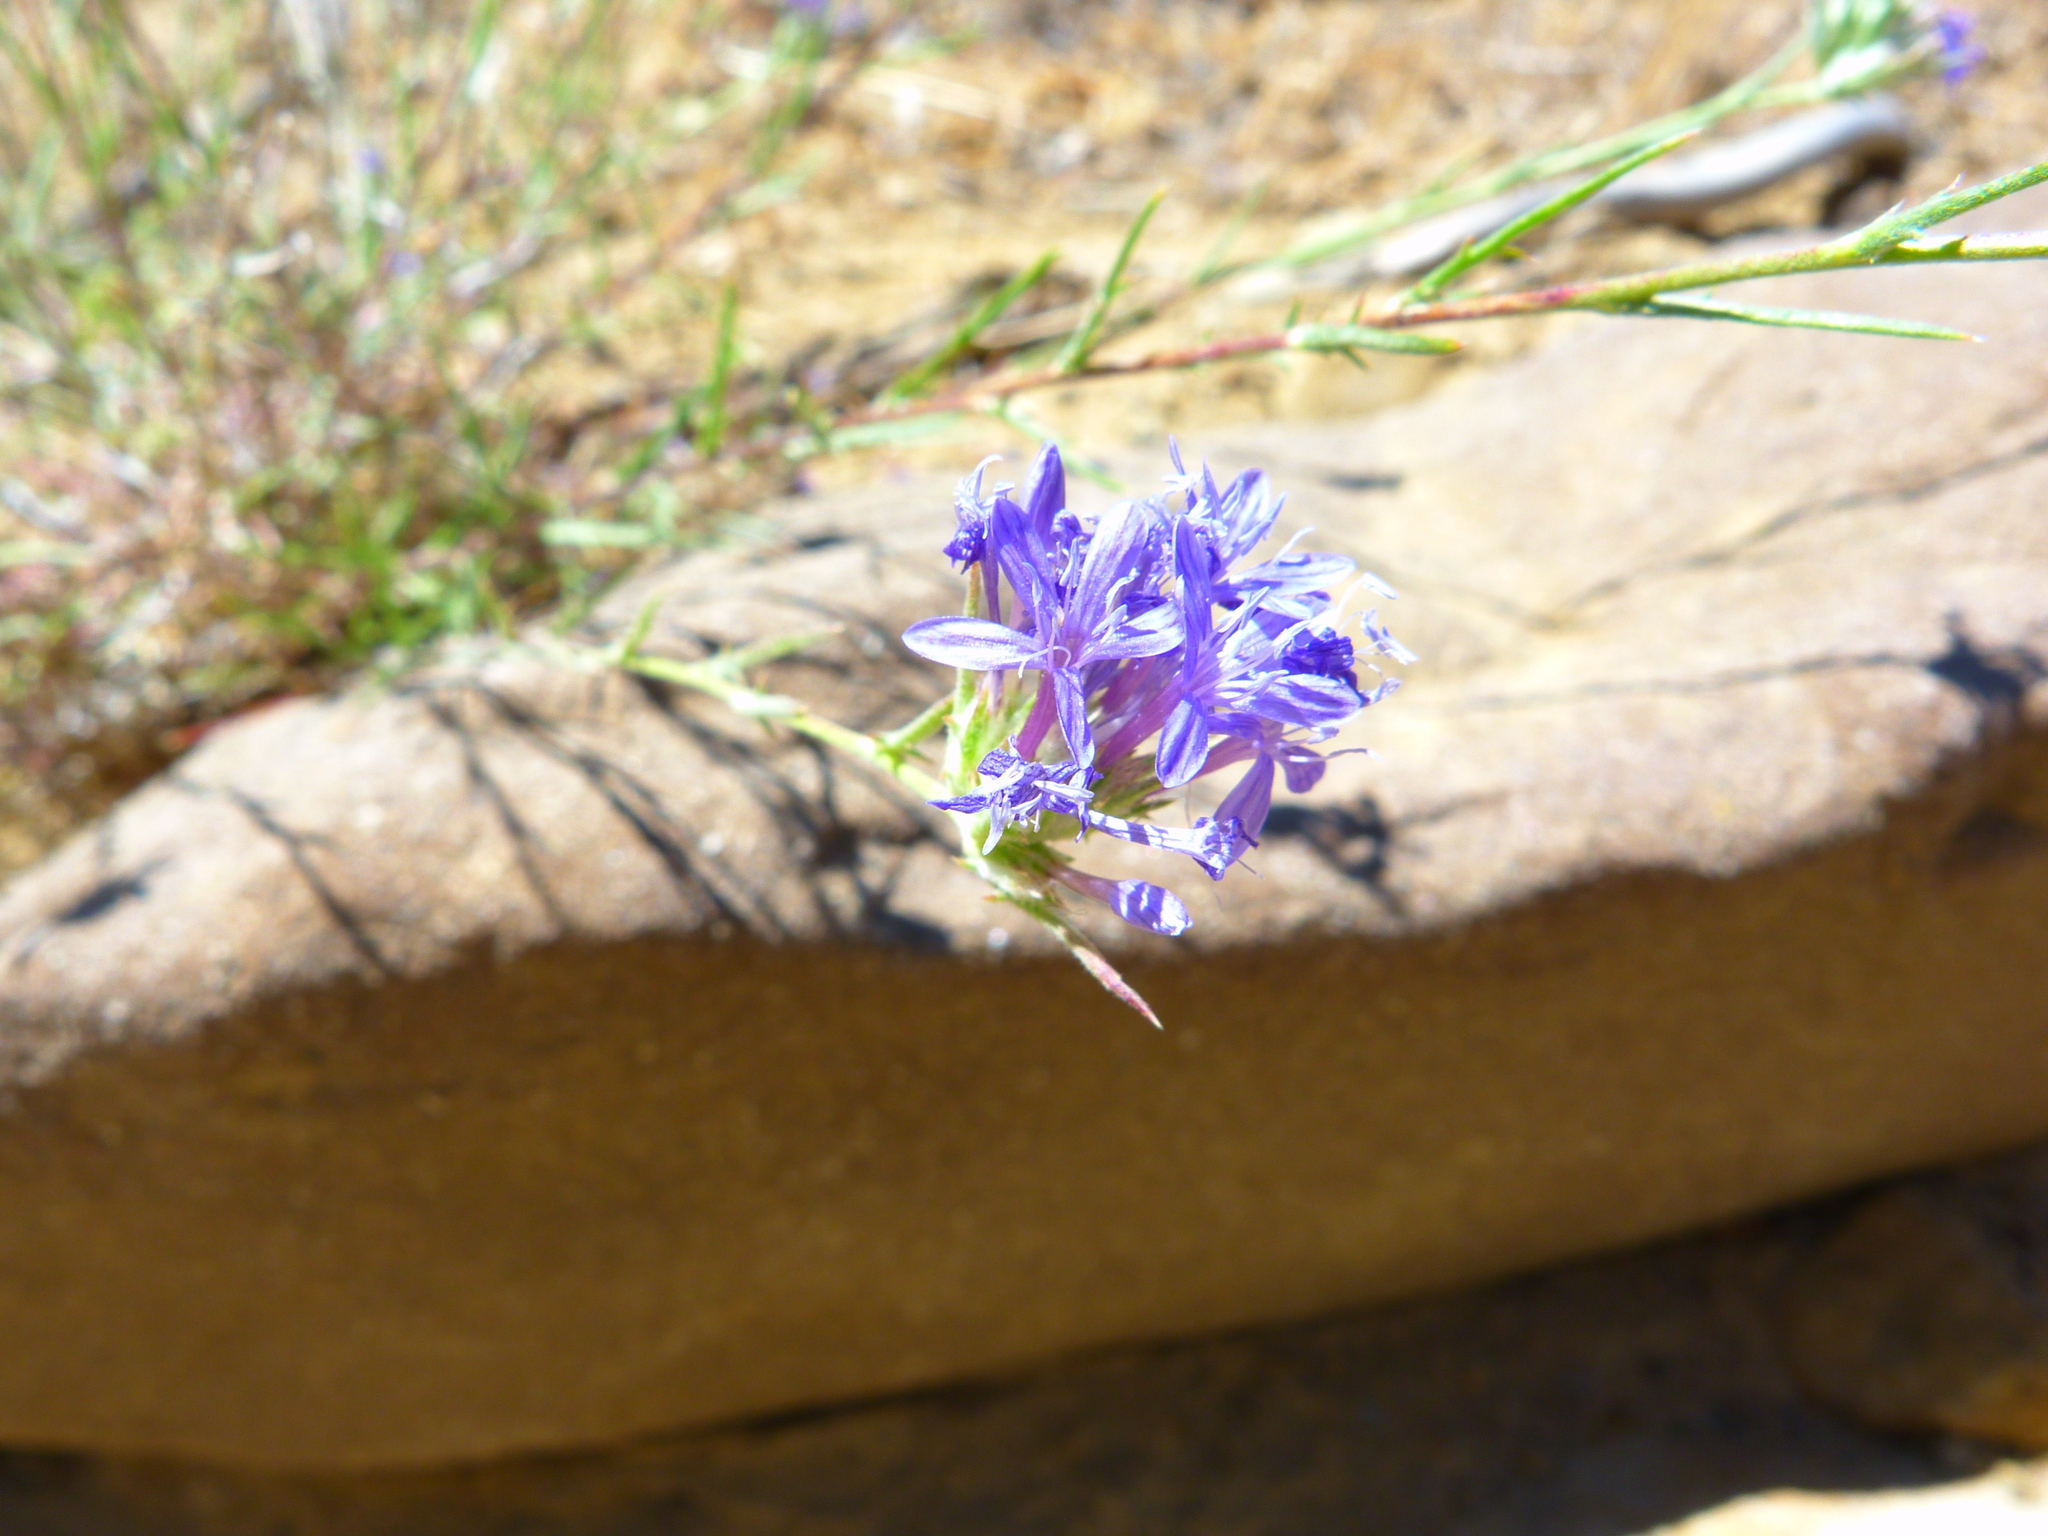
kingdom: Plantae
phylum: Tracheophyta
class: Magnoliopsida
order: Ericales
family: Polemoniaceae
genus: Eriastrum
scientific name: Eriastrum densifolium
